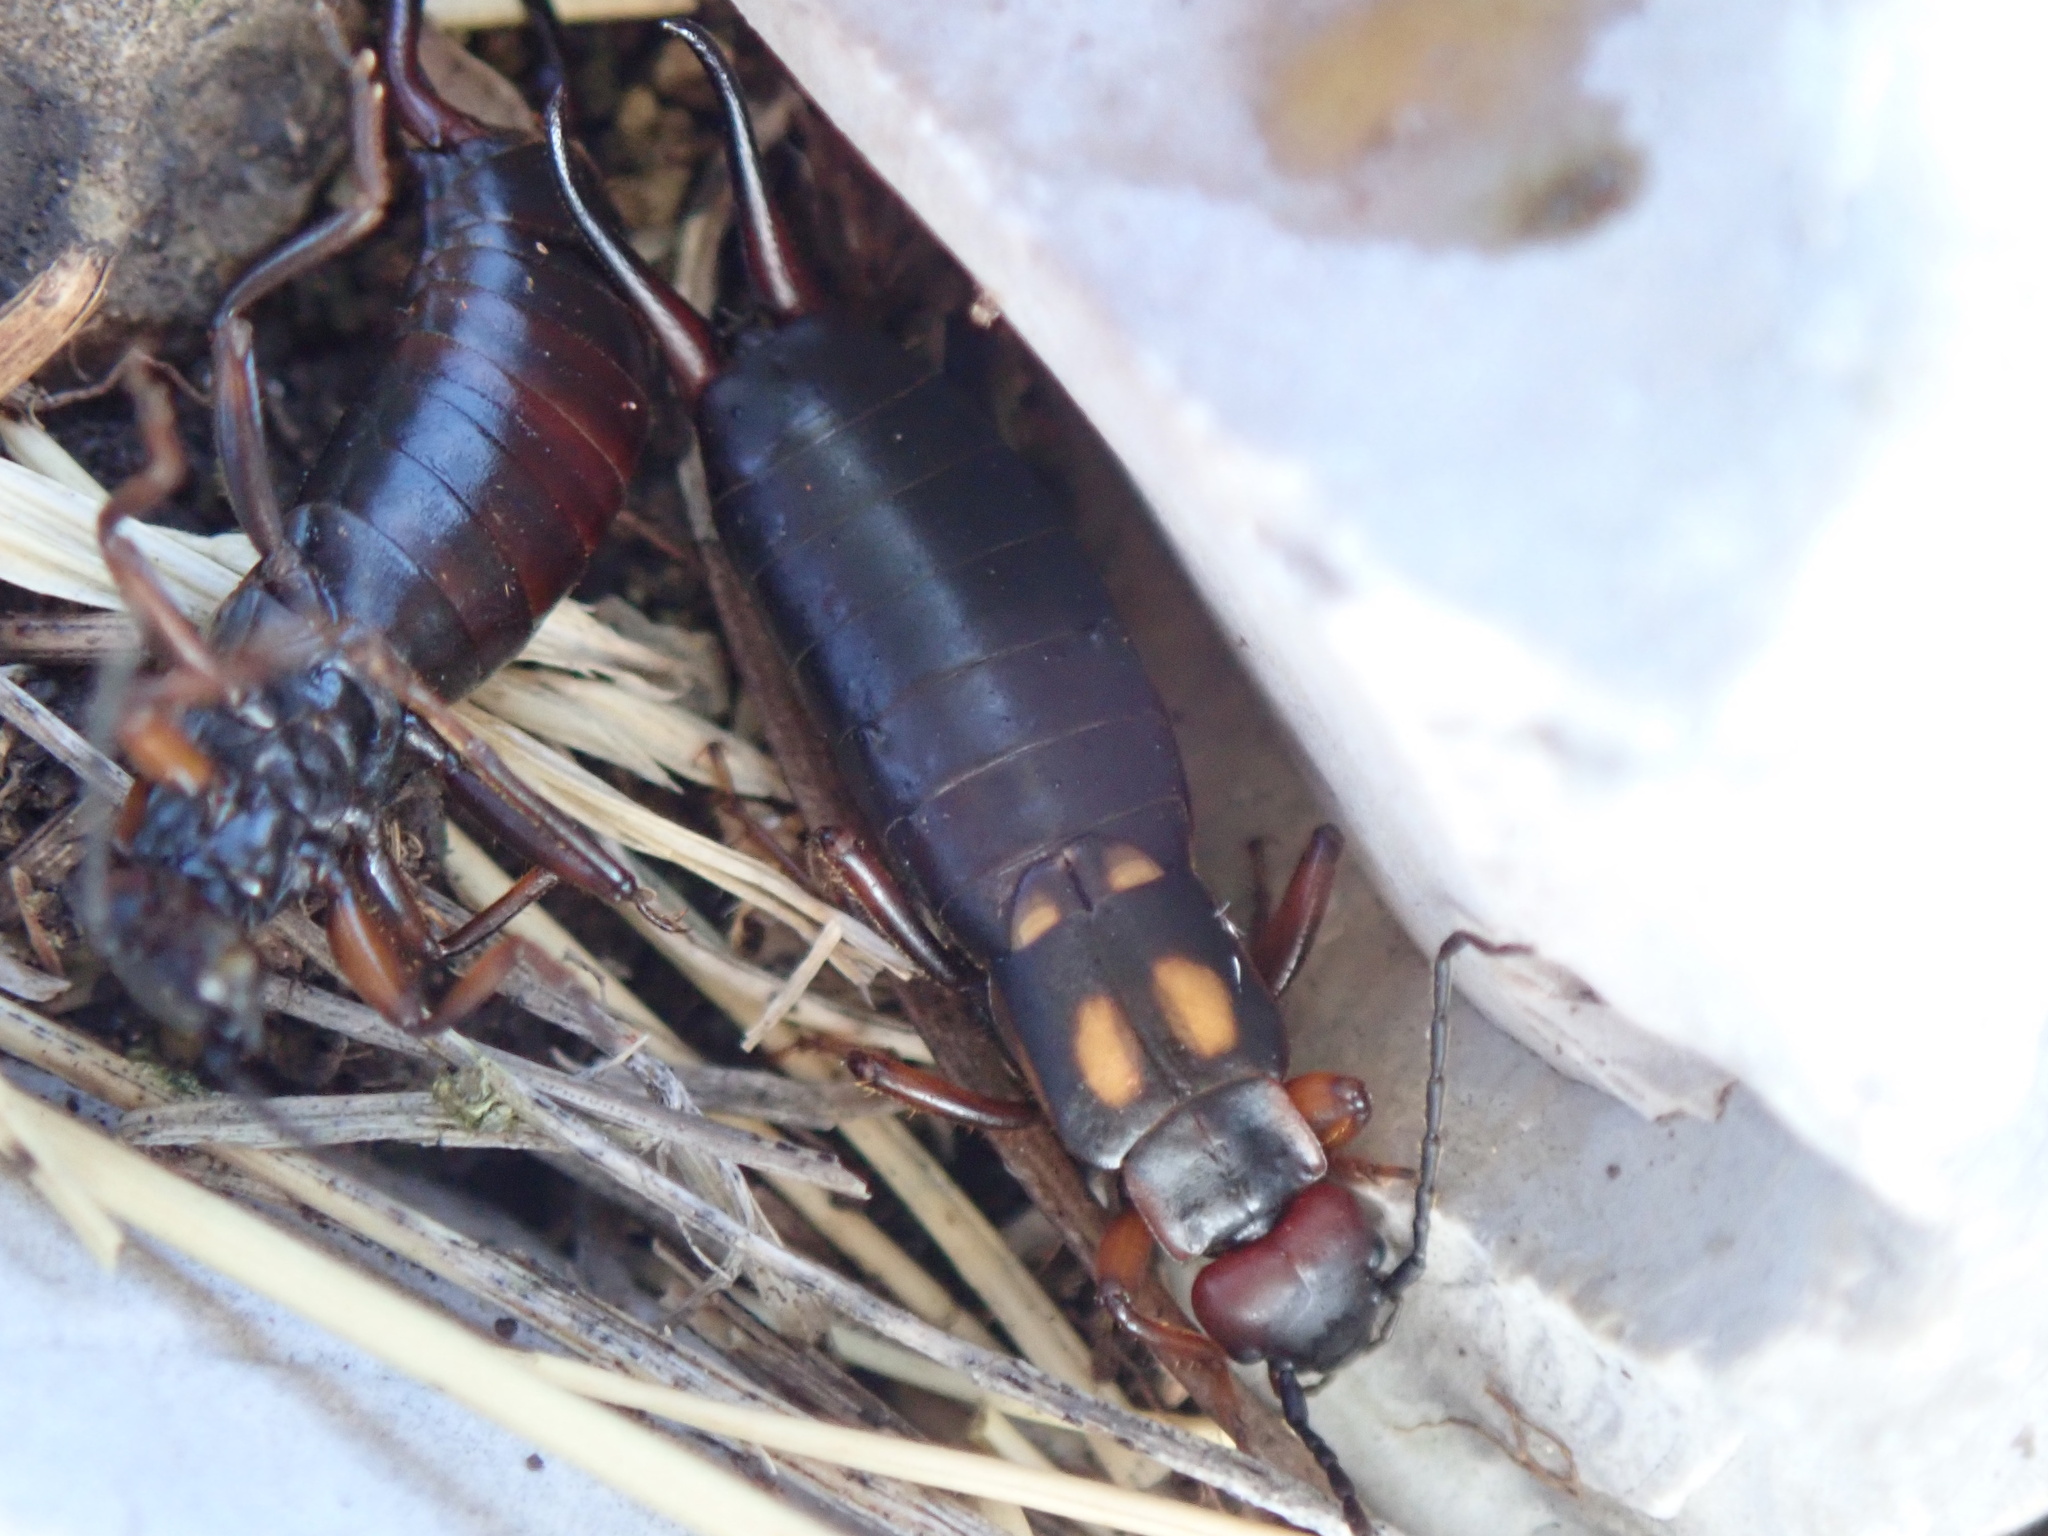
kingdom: Animalia
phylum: Arthropoda
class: Insecta
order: Dermaptera
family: Forficulidae
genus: Anechura
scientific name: Anechura bipunctata
